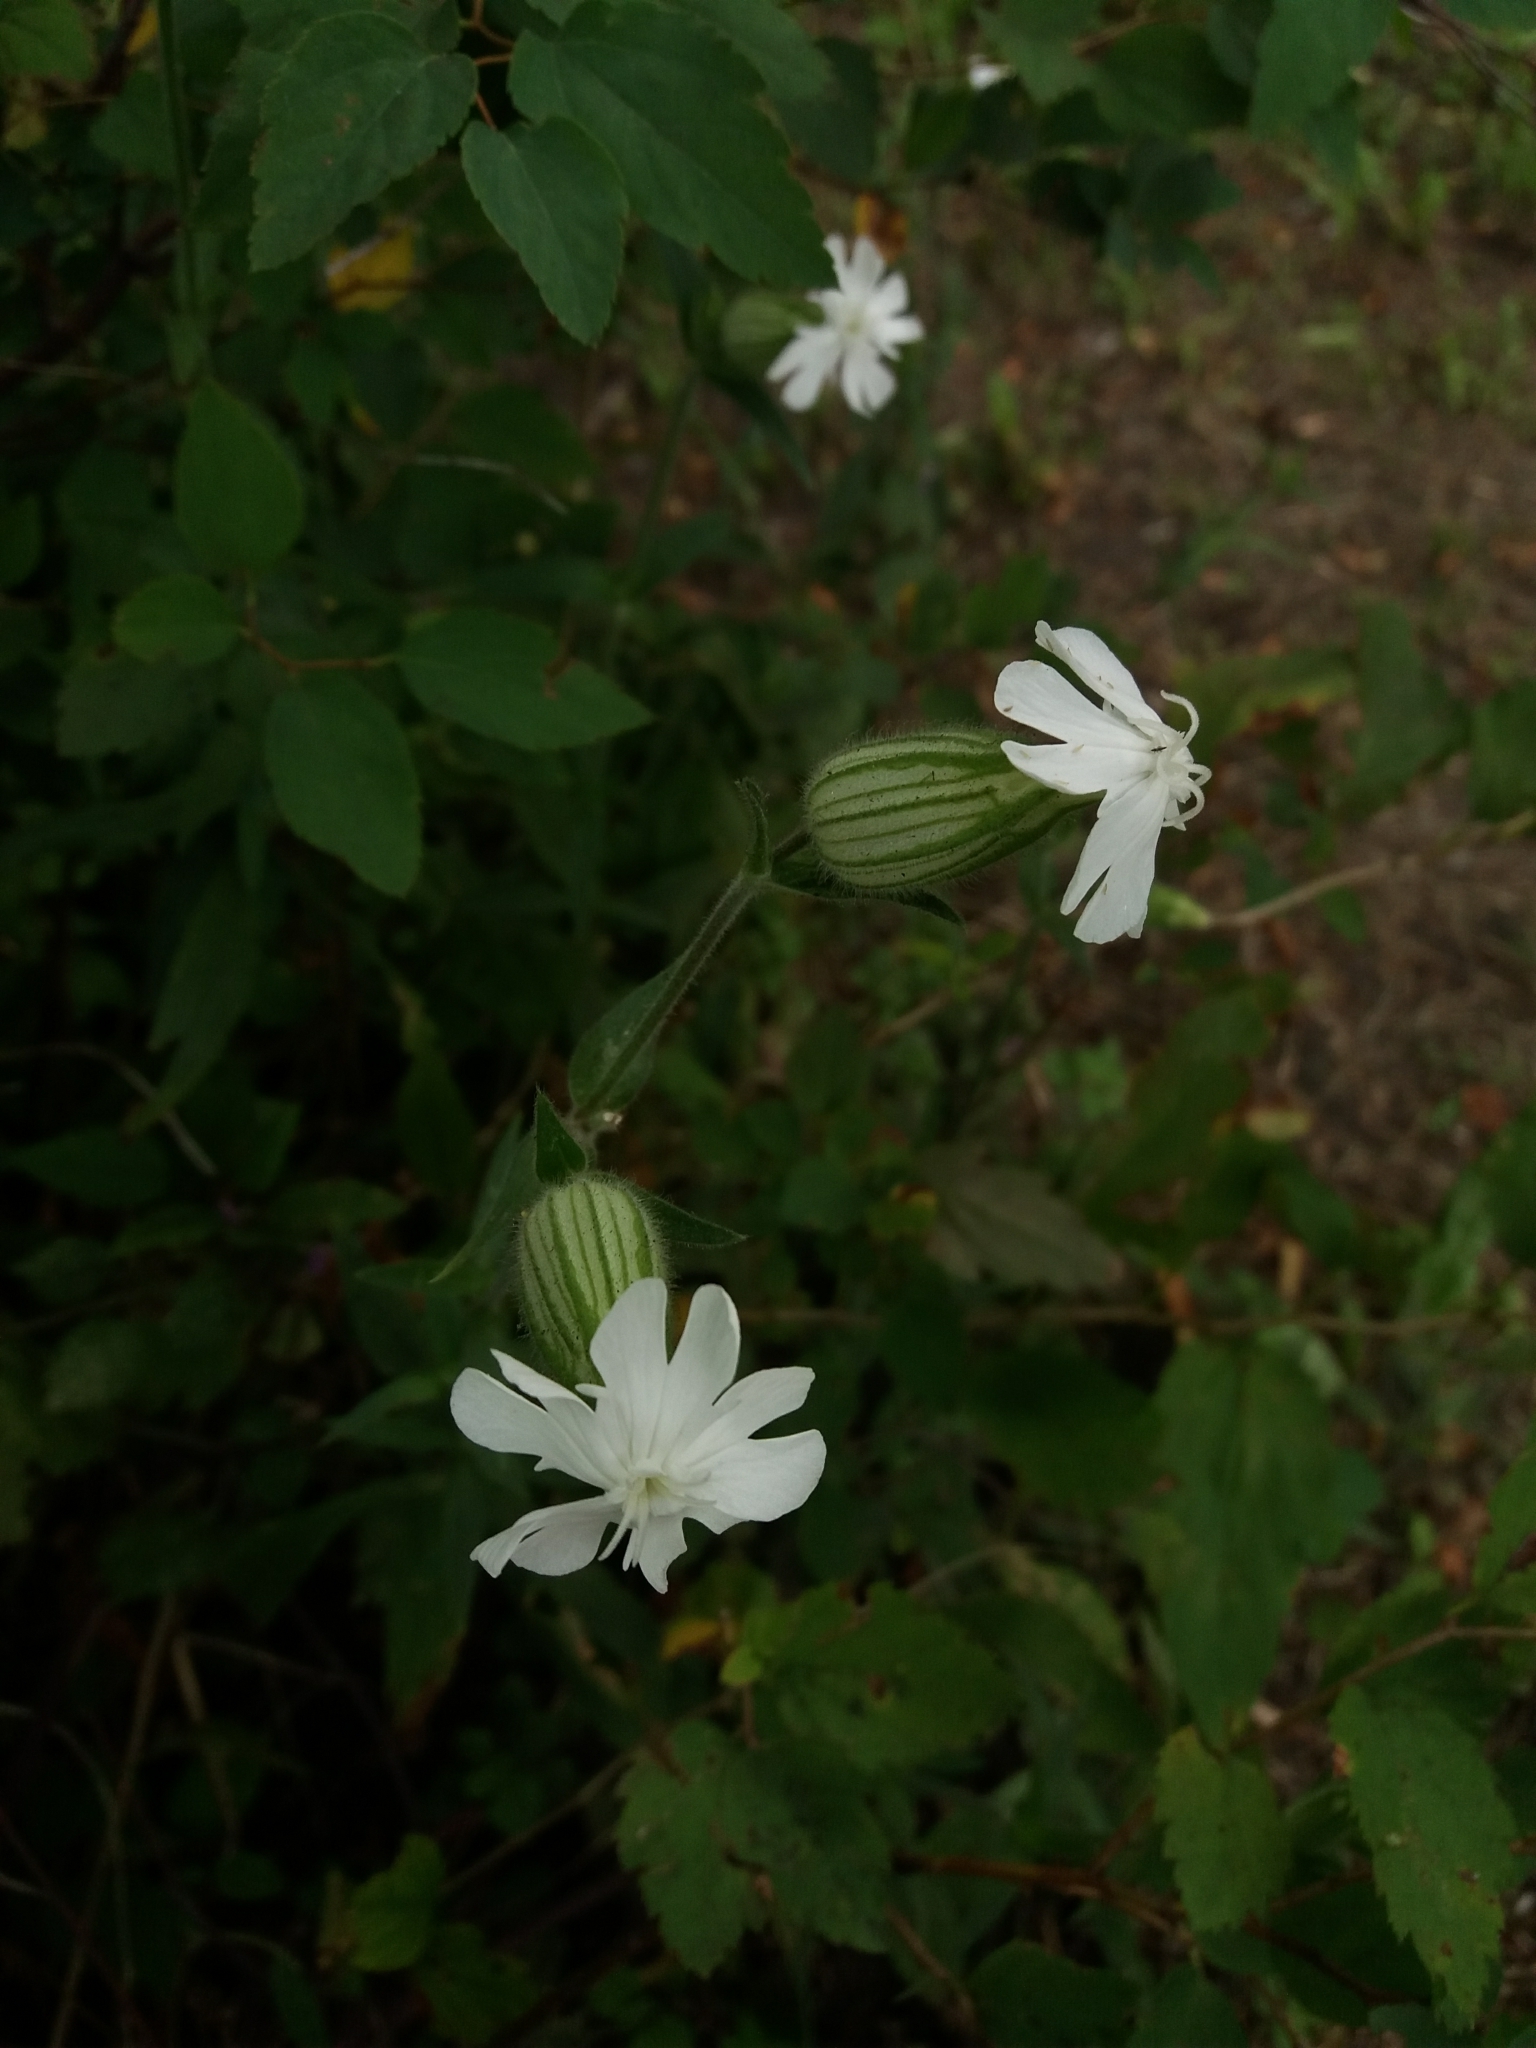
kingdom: Plantae
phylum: Tracheophyta
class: Magnoliopsida
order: Caryophyllales
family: Caryophyllaceae
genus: Silene
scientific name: Silene latifolia
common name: White campion
